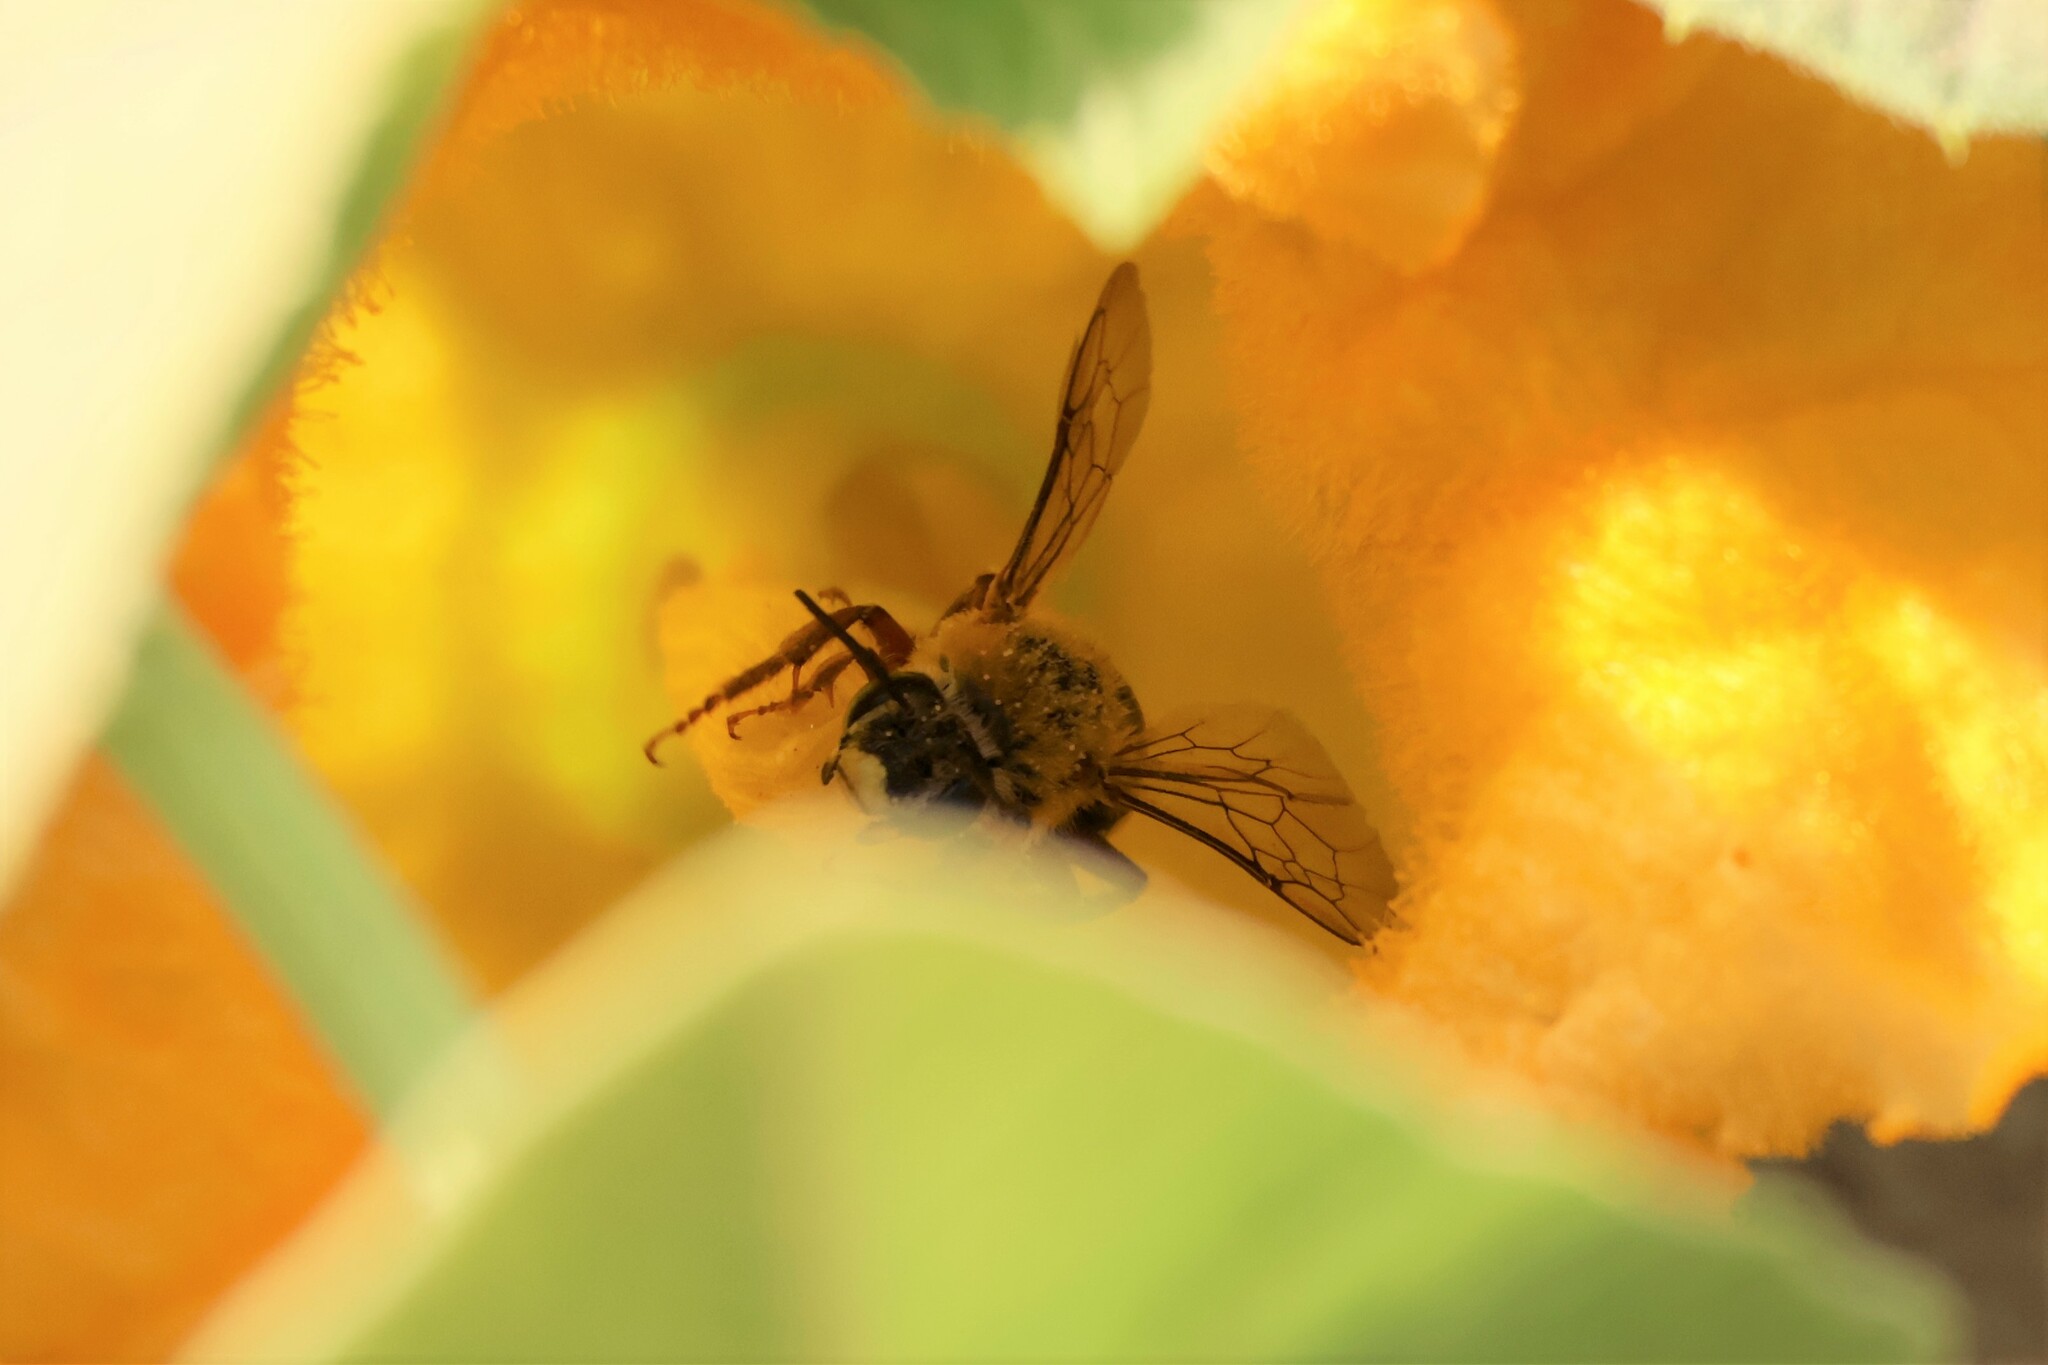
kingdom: Animalia
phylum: Arthropoda
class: Insecta
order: Hymenoptera
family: Apidae
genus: Xenoglossa
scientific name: Xenoglossa strenua
